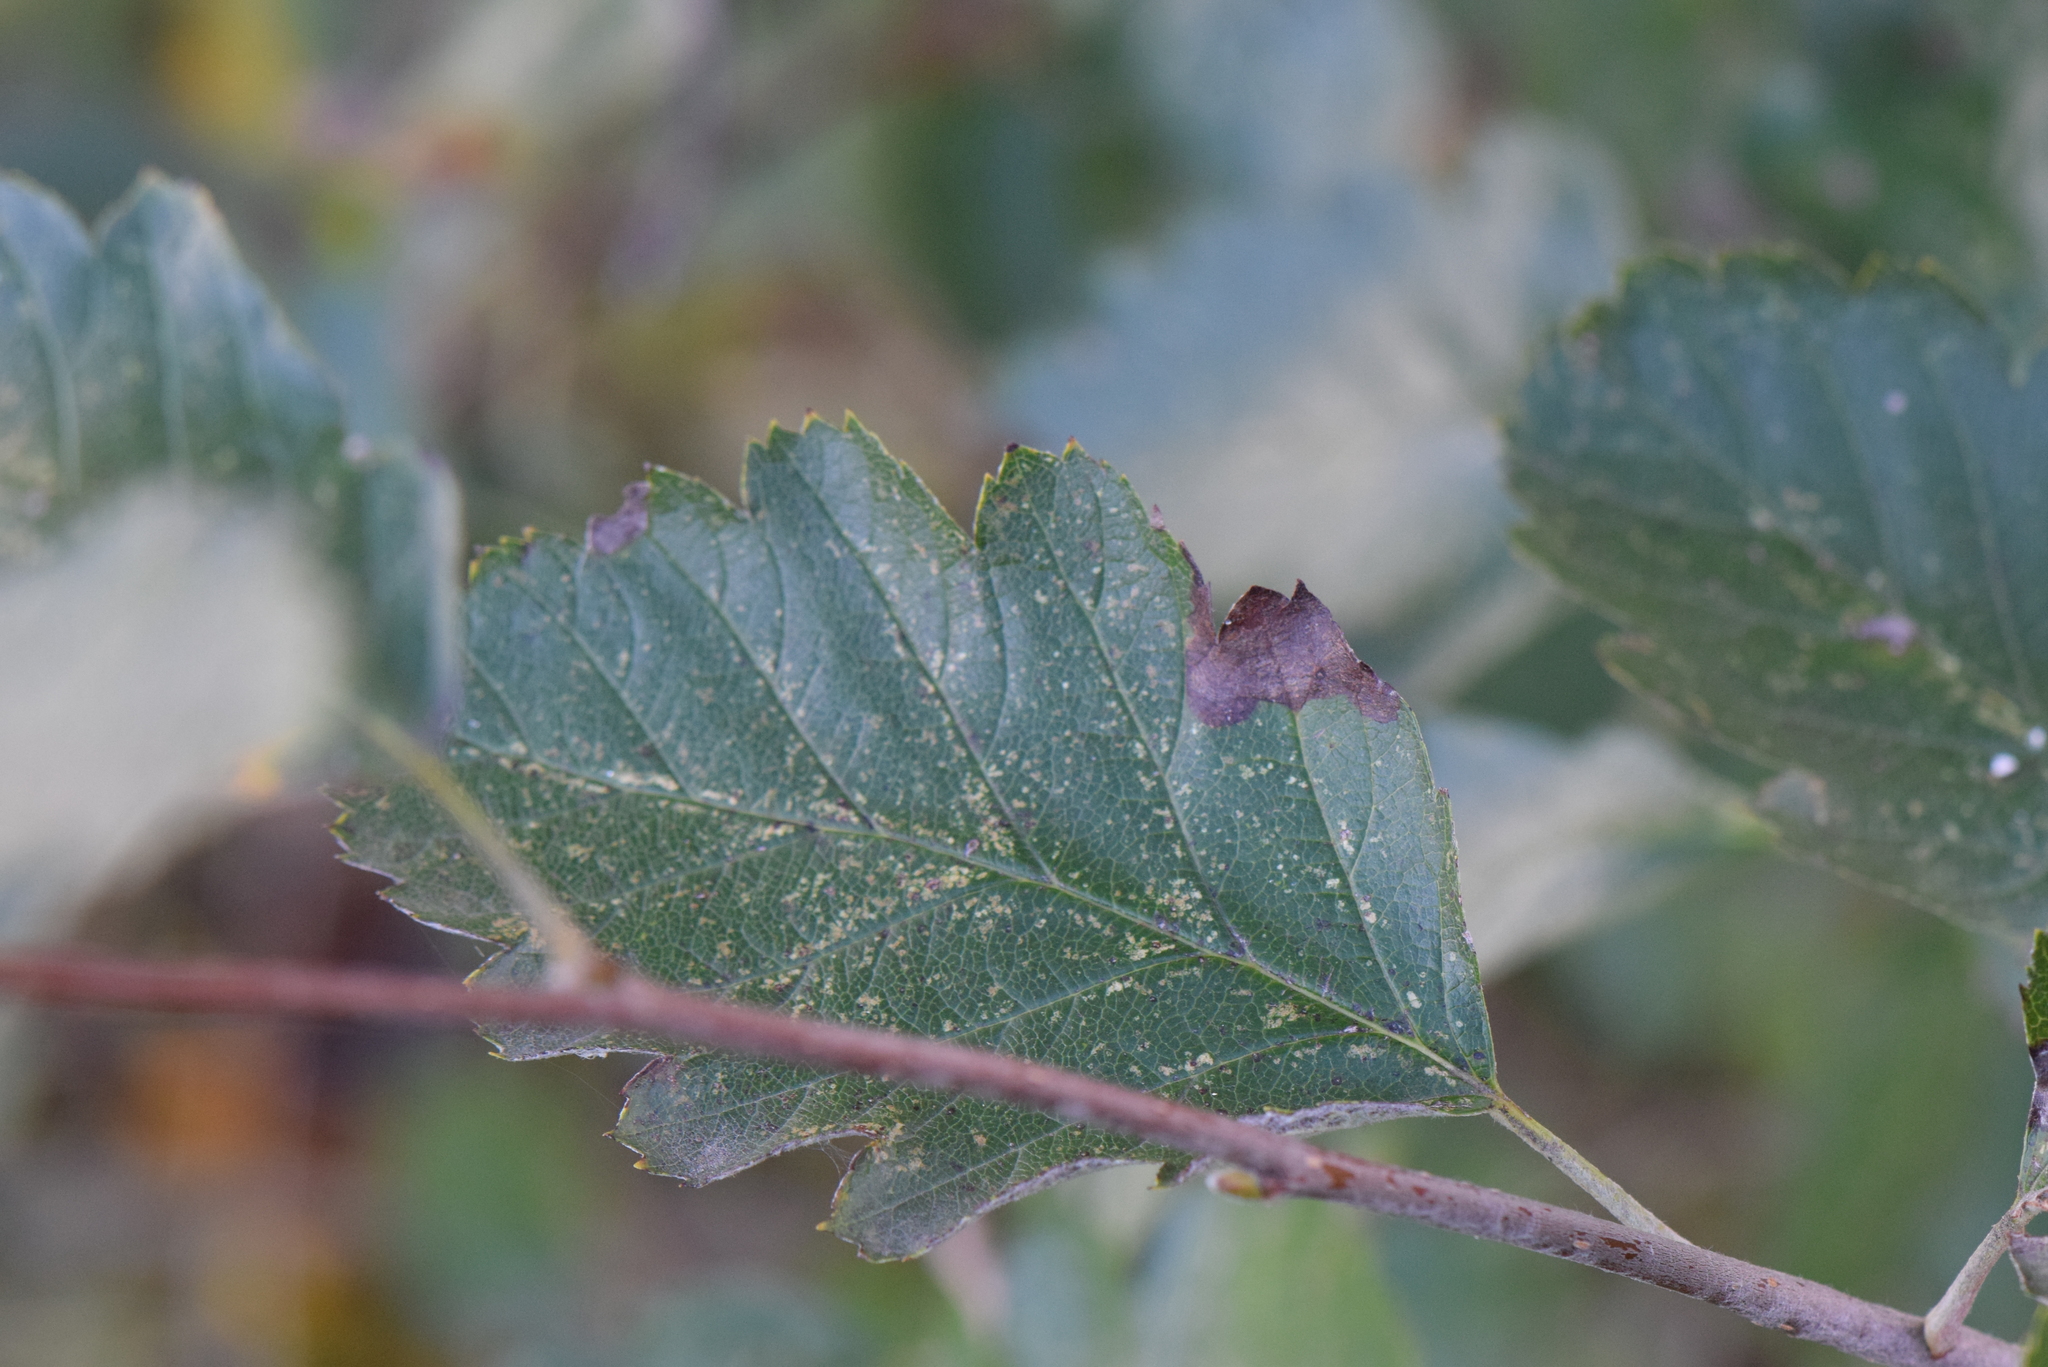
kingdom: Plantae
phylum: Tracheophyta
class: Magnoliopsida
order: Rosales
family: Rosaceae
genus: Scandosorbus
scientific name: Scandosorbus intermedia
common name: Swedish whitebeam
